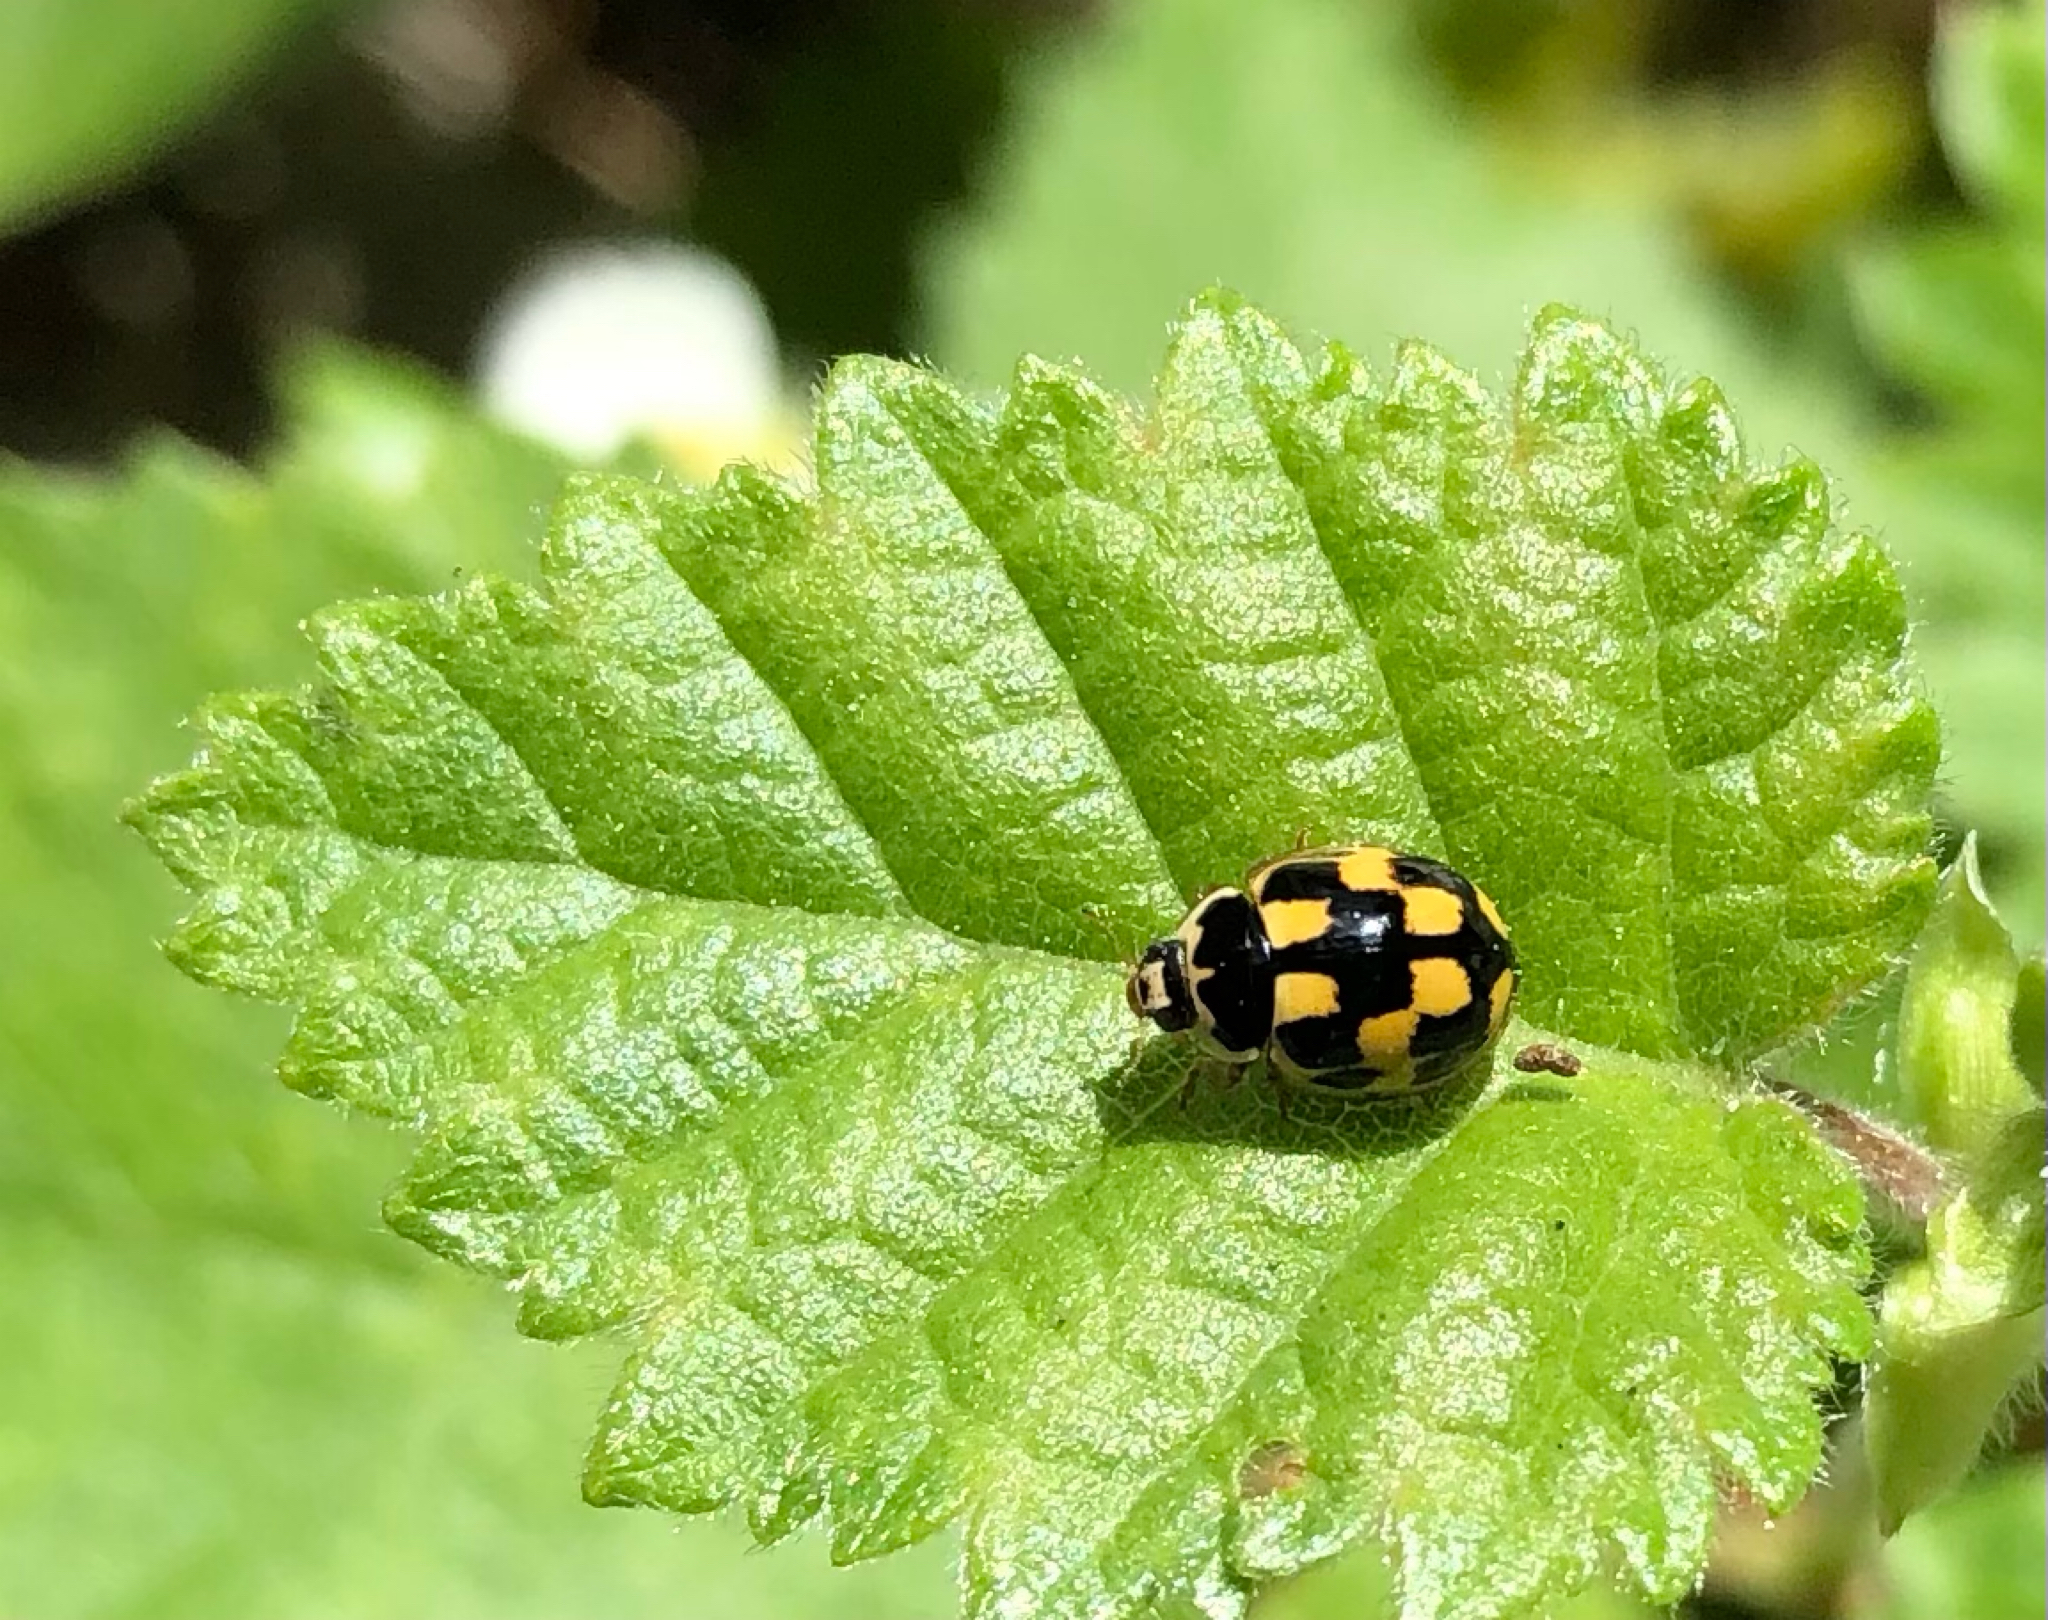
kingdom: Animalia
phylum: Arthropoda
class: Insecta
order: Coleoptera
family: Coccinellidae
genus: Propylaea
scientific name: Propylaea quatuordecimpunctata
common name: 14-spotted ladybird beetle
